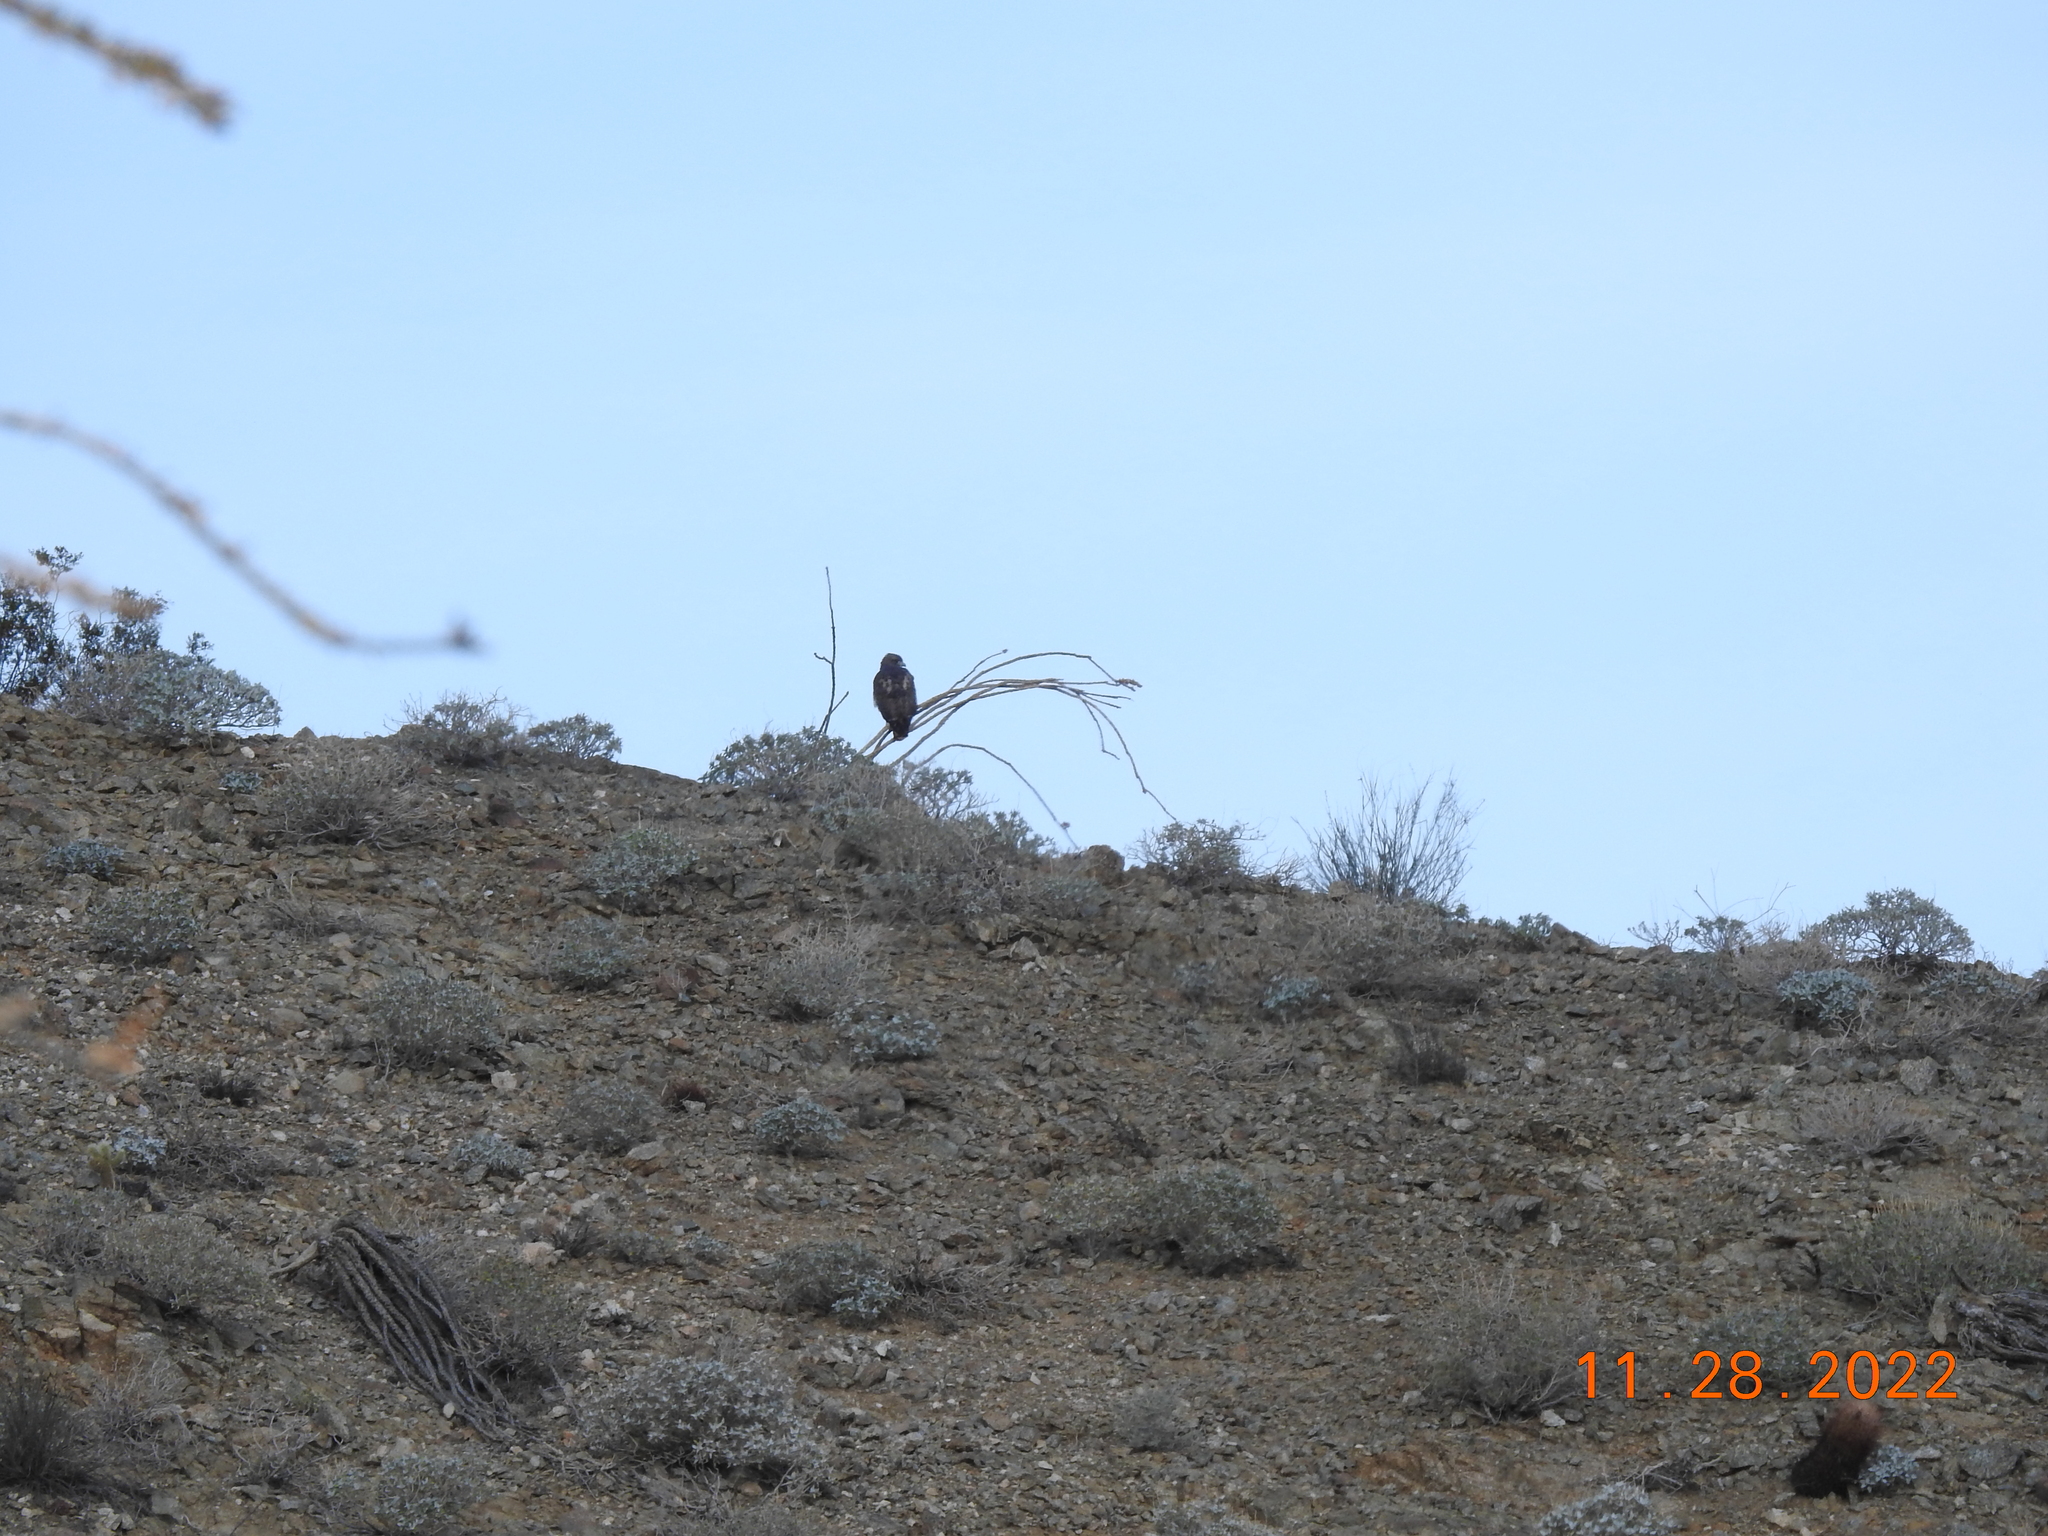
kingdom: Animalia
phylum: Chordata
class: Aves
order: Accipitriformes
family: Accipitridae
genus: Buteo
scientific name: Buteo jamaicensis
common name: Red-tailed hawk
